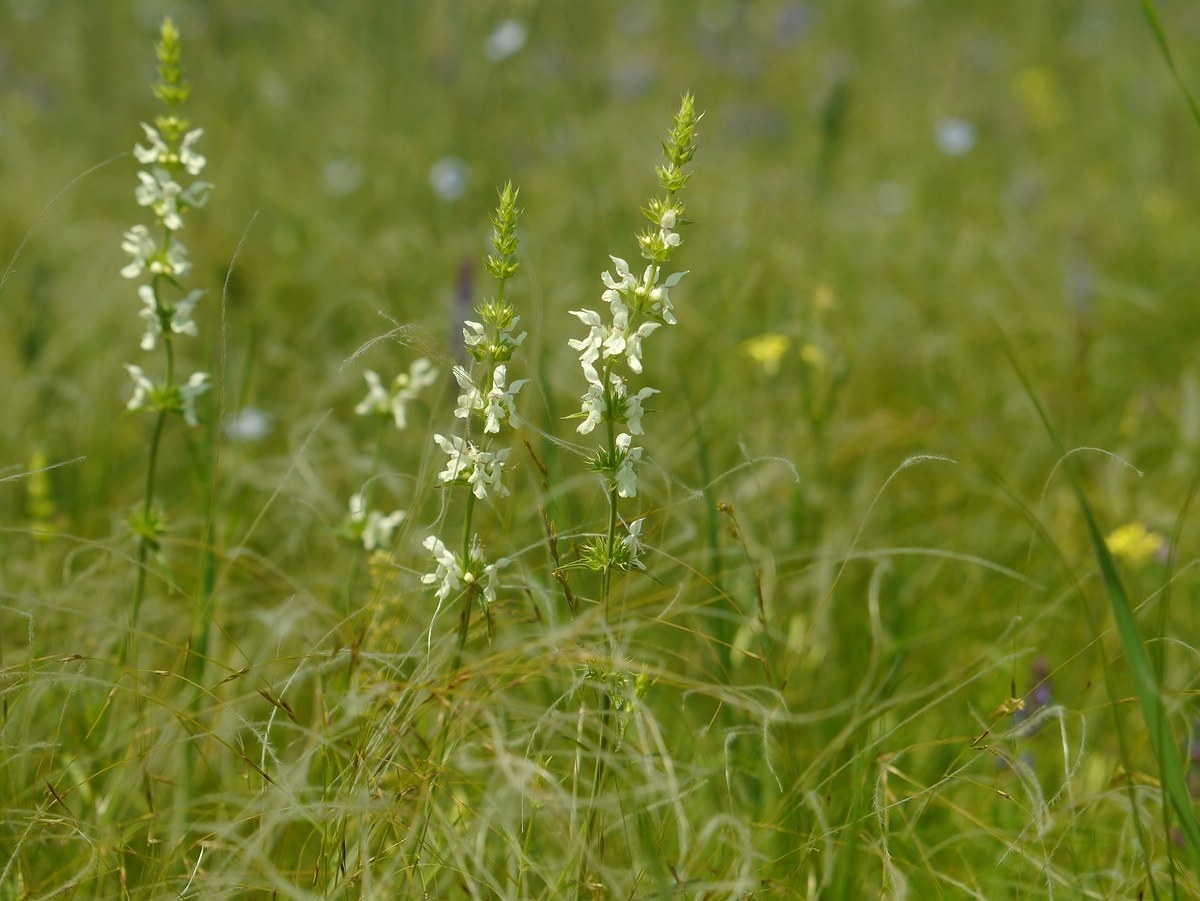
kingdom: Plantae
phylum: Tracheophyta
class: Magnoliopsida
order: Lamiales
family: Lamiaceae
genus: Stachys
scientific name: Stachys recta
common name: Perennial yellow-woundwort
